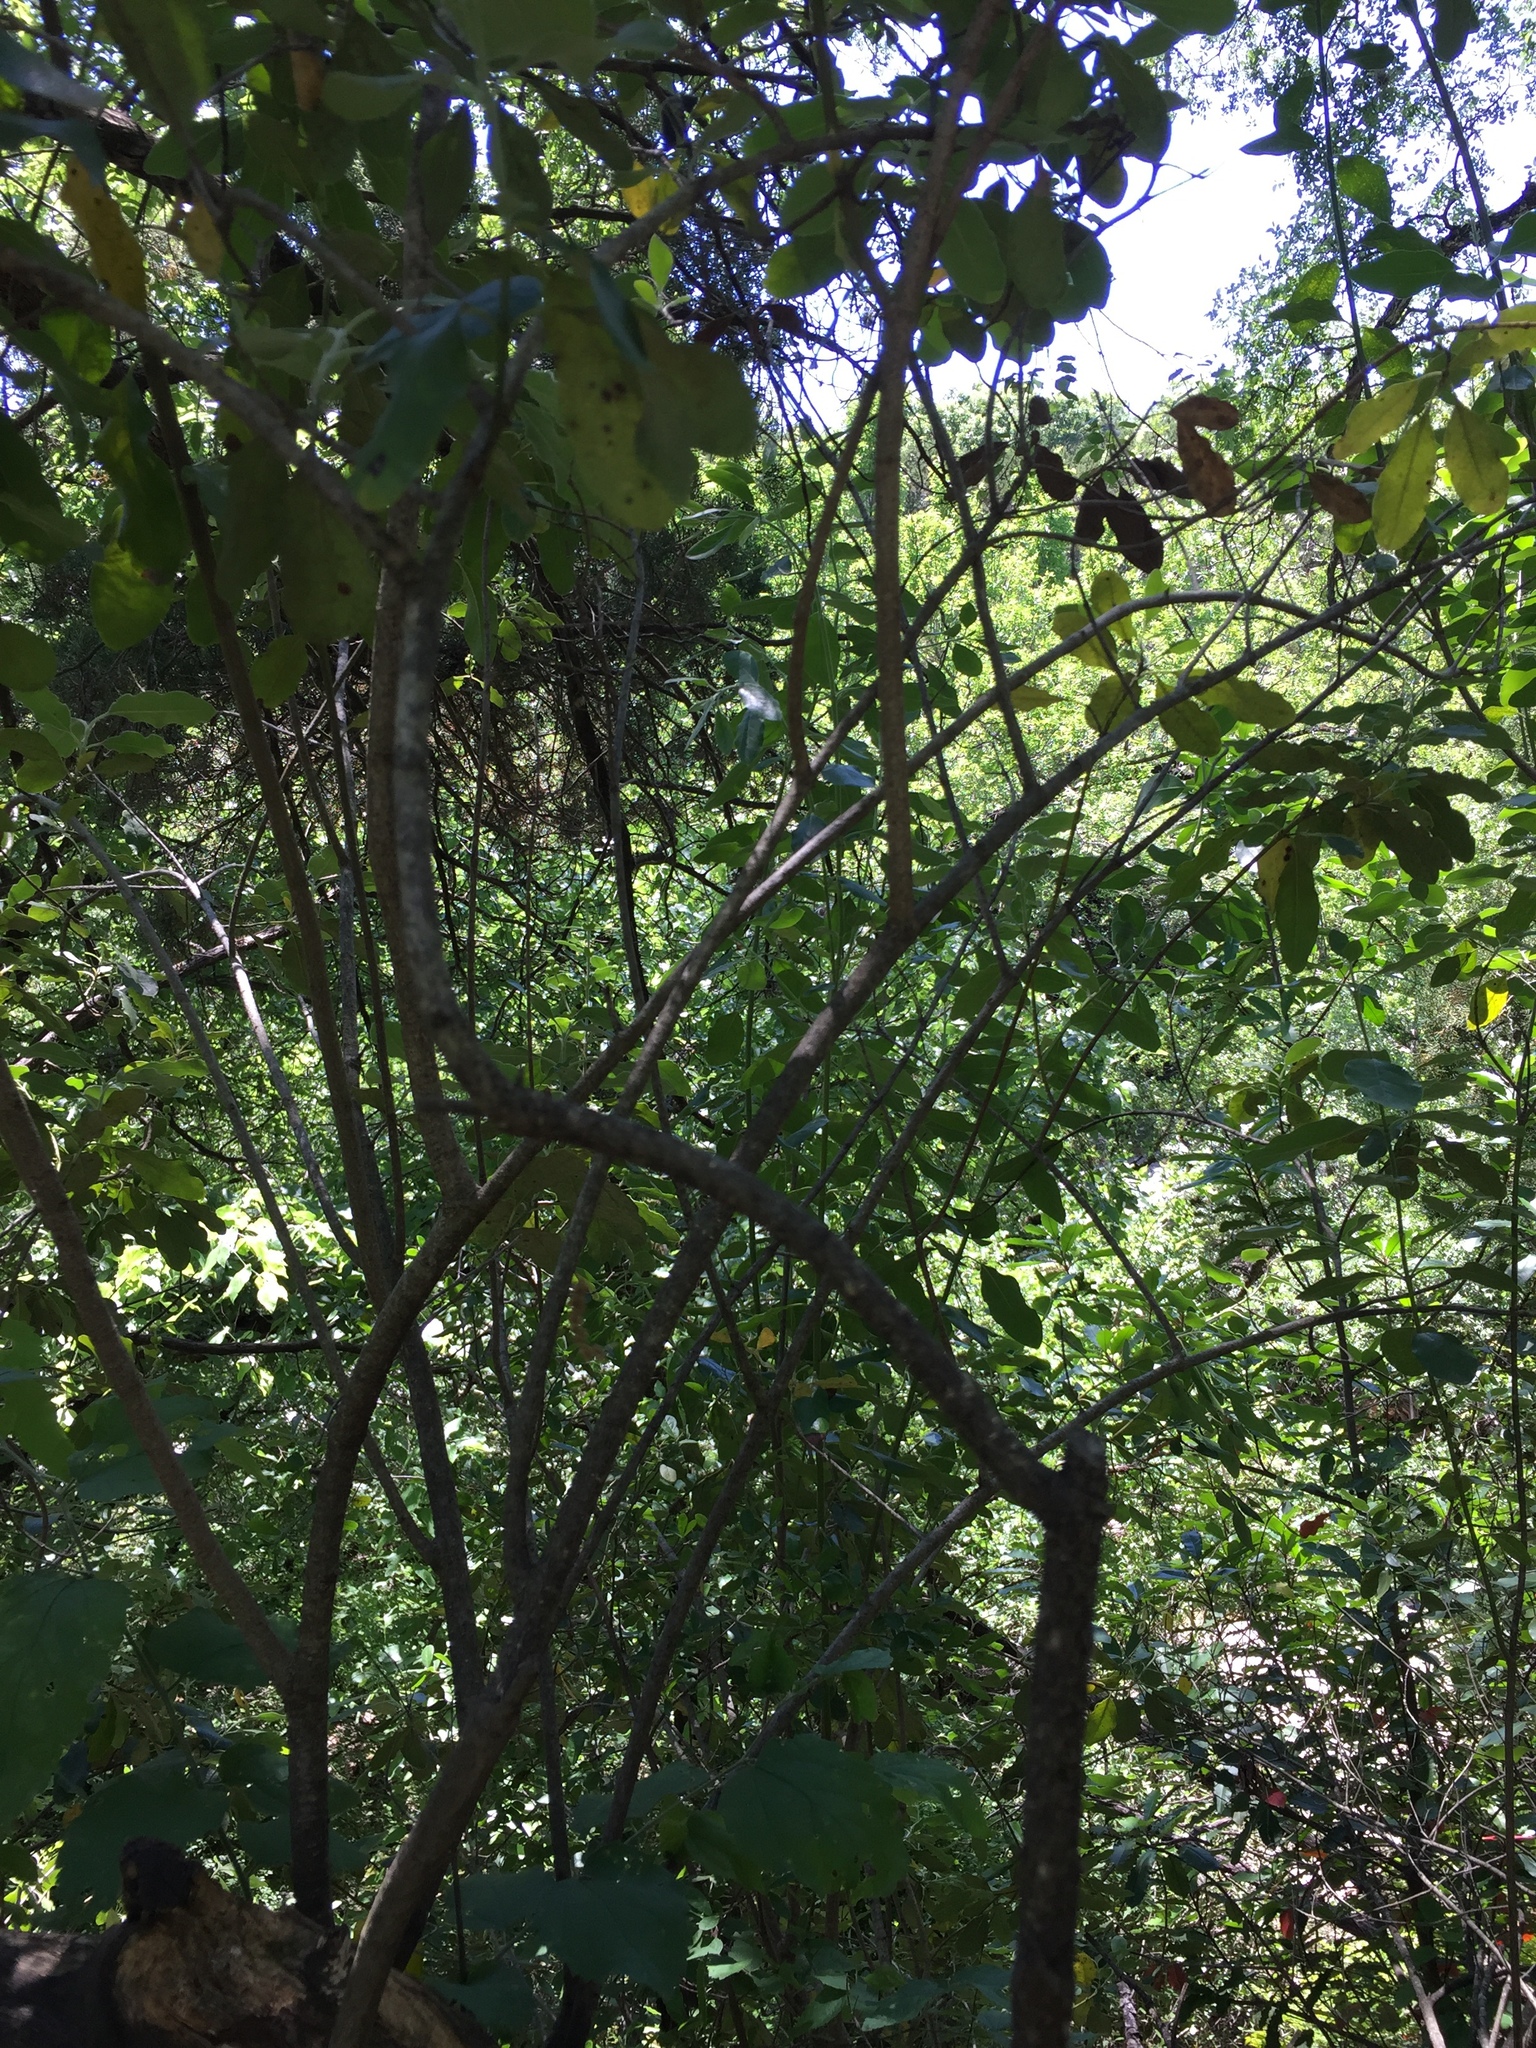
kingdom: Plantae
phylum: Tracheophyta
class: Magnoliopsida
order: Garryales
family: Garryaceae
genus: Garrya
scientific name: Garrya lindheimeri
